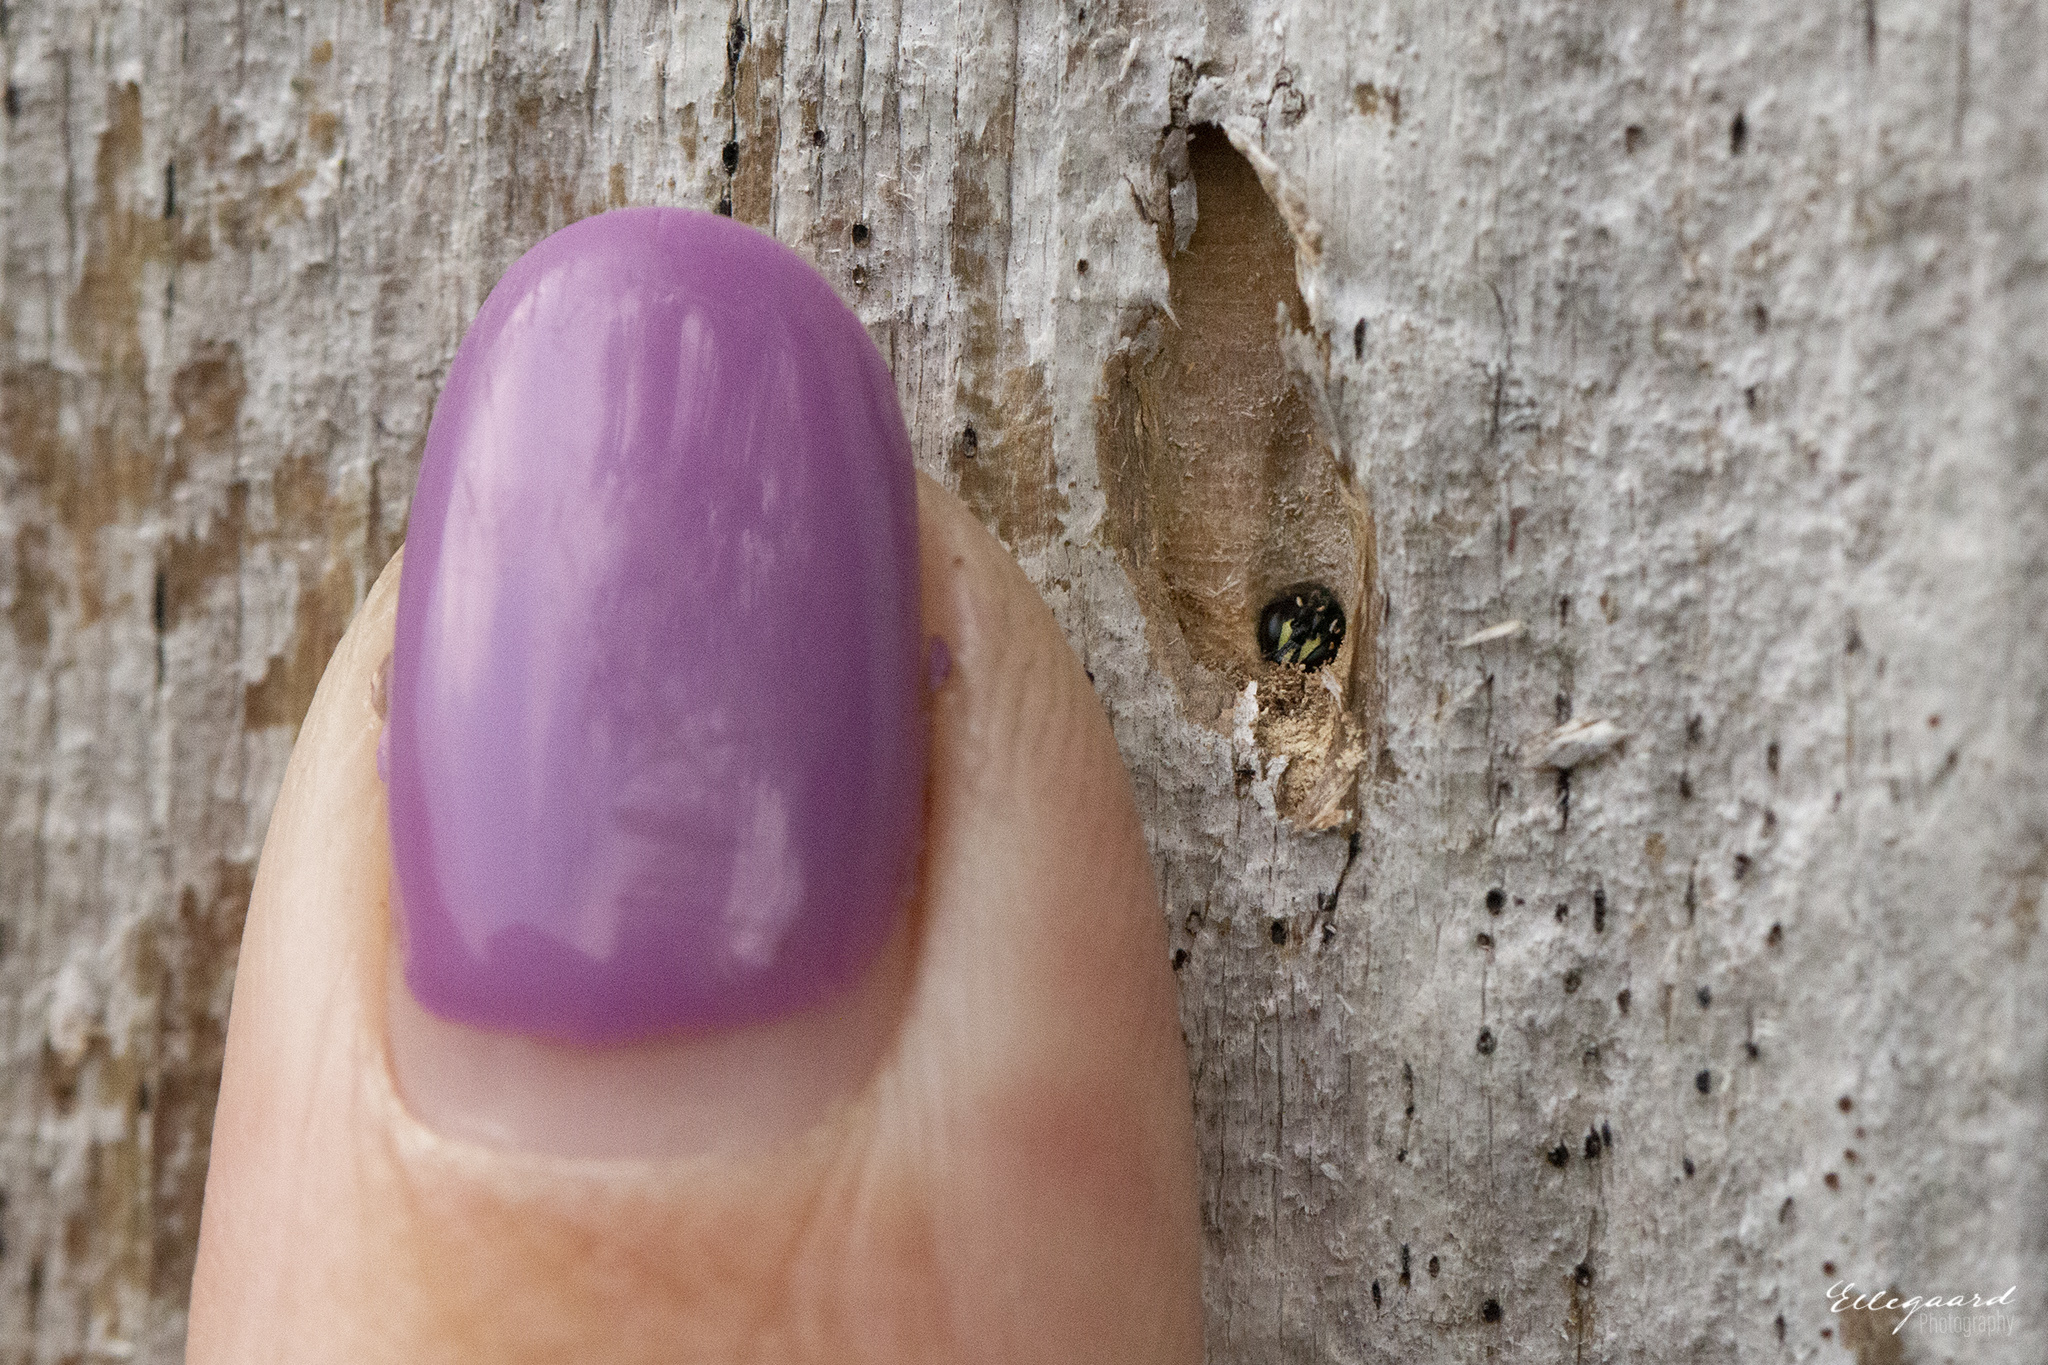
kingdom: Animalia
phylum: Arthropoda
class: Insecta
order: Hymenoptera
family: Colletidae
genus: Hylaeus
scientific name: Hylaeus communis
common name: Common yellow-face bee
